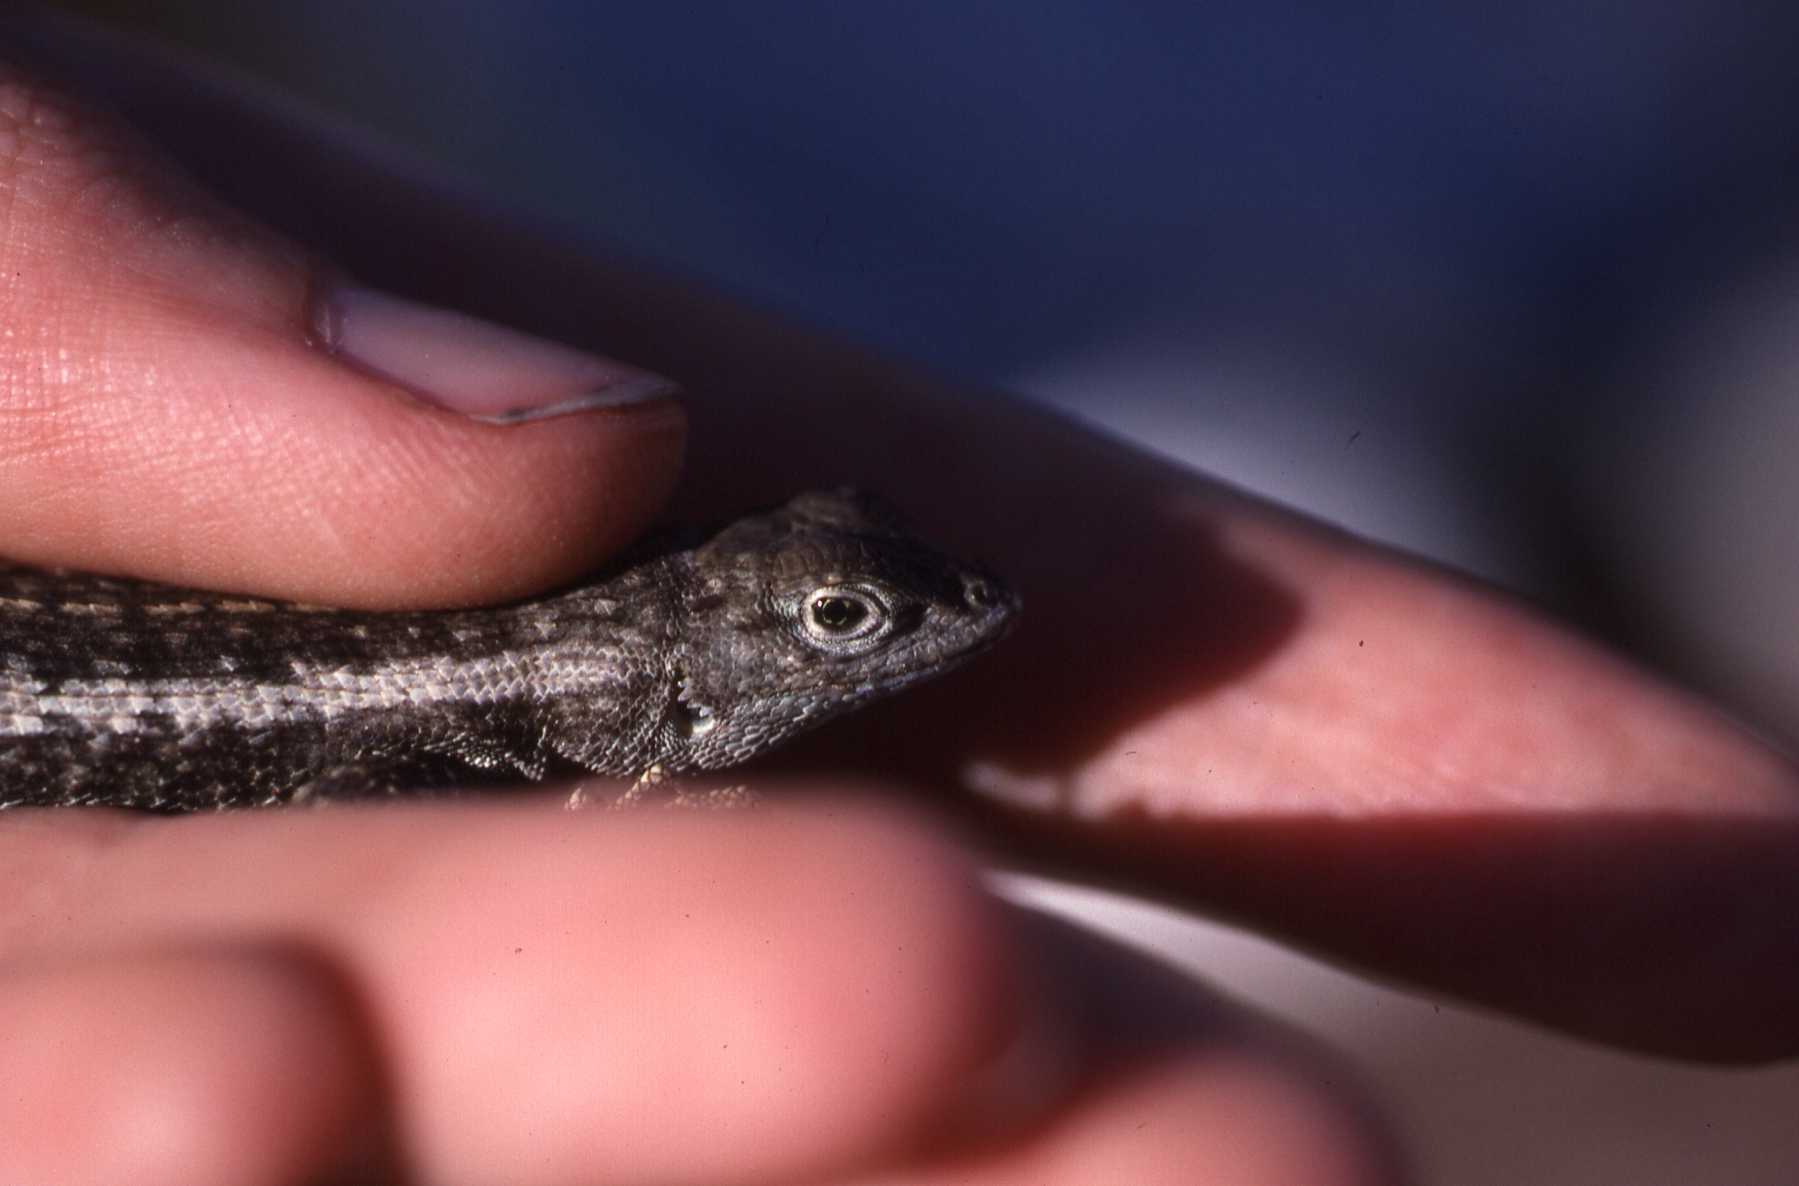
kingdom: Animalia
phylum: Chordata
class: Squamata
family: Tropiduridae
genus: Microlophus
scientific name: Microlophus bivittatus
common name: San cristobal lava lizard
